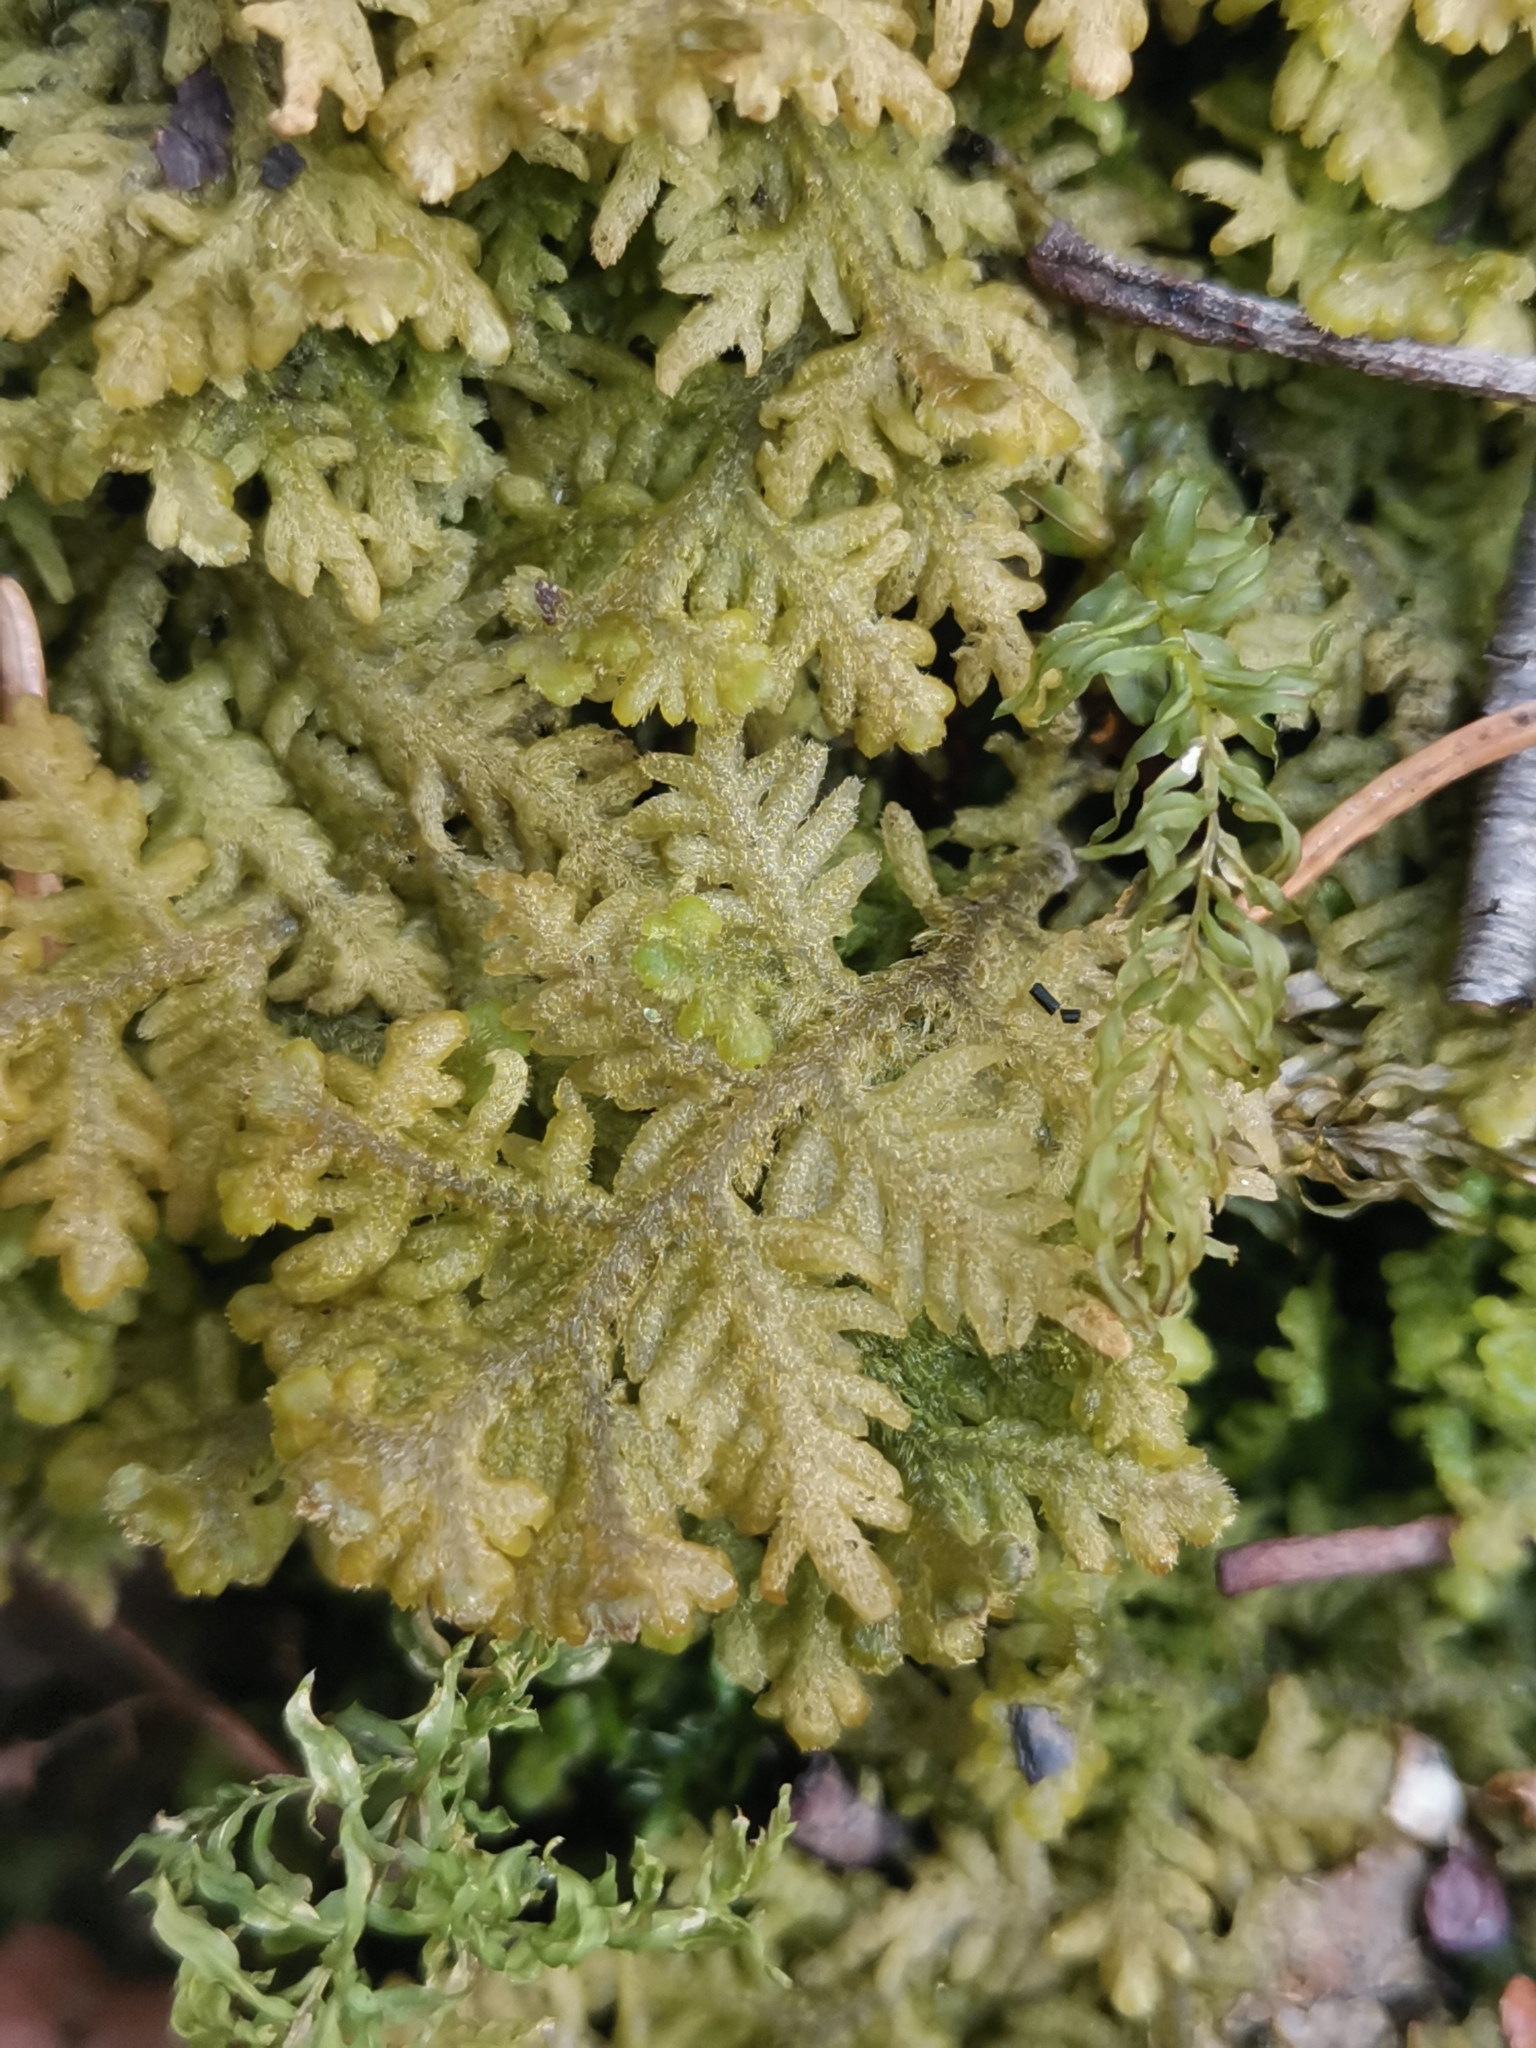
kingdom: Plantae
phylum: Marchantiophyta
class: Jungermanniopsida
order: Jungermanniales
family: Trichocoleaceae
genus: Trichocolea
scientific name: Trichocolea tomentella
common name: Woolly liverwort
